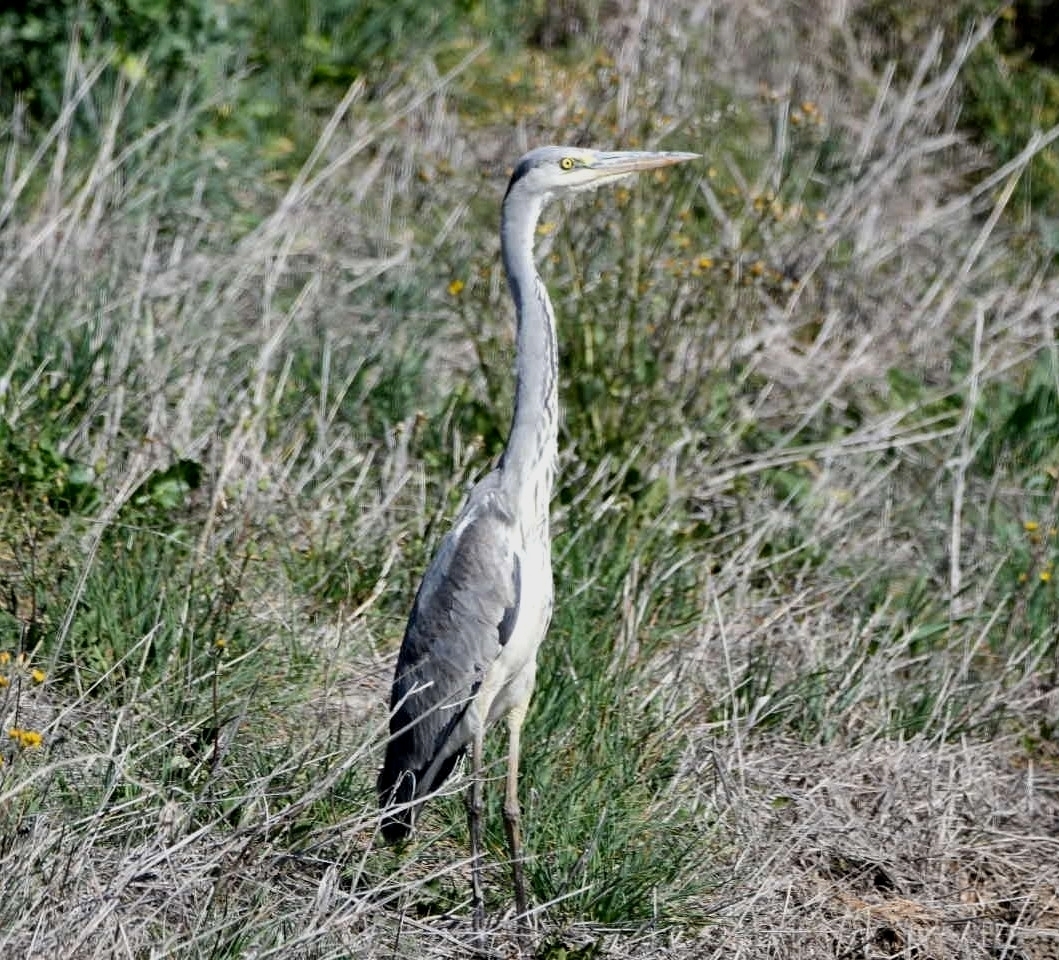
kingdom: Animalia
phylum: Chordata
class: Aves
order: Pelecaniformes
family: Ardeidae
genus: Ardea
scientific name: Ardea cinerea
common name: Grey heron
